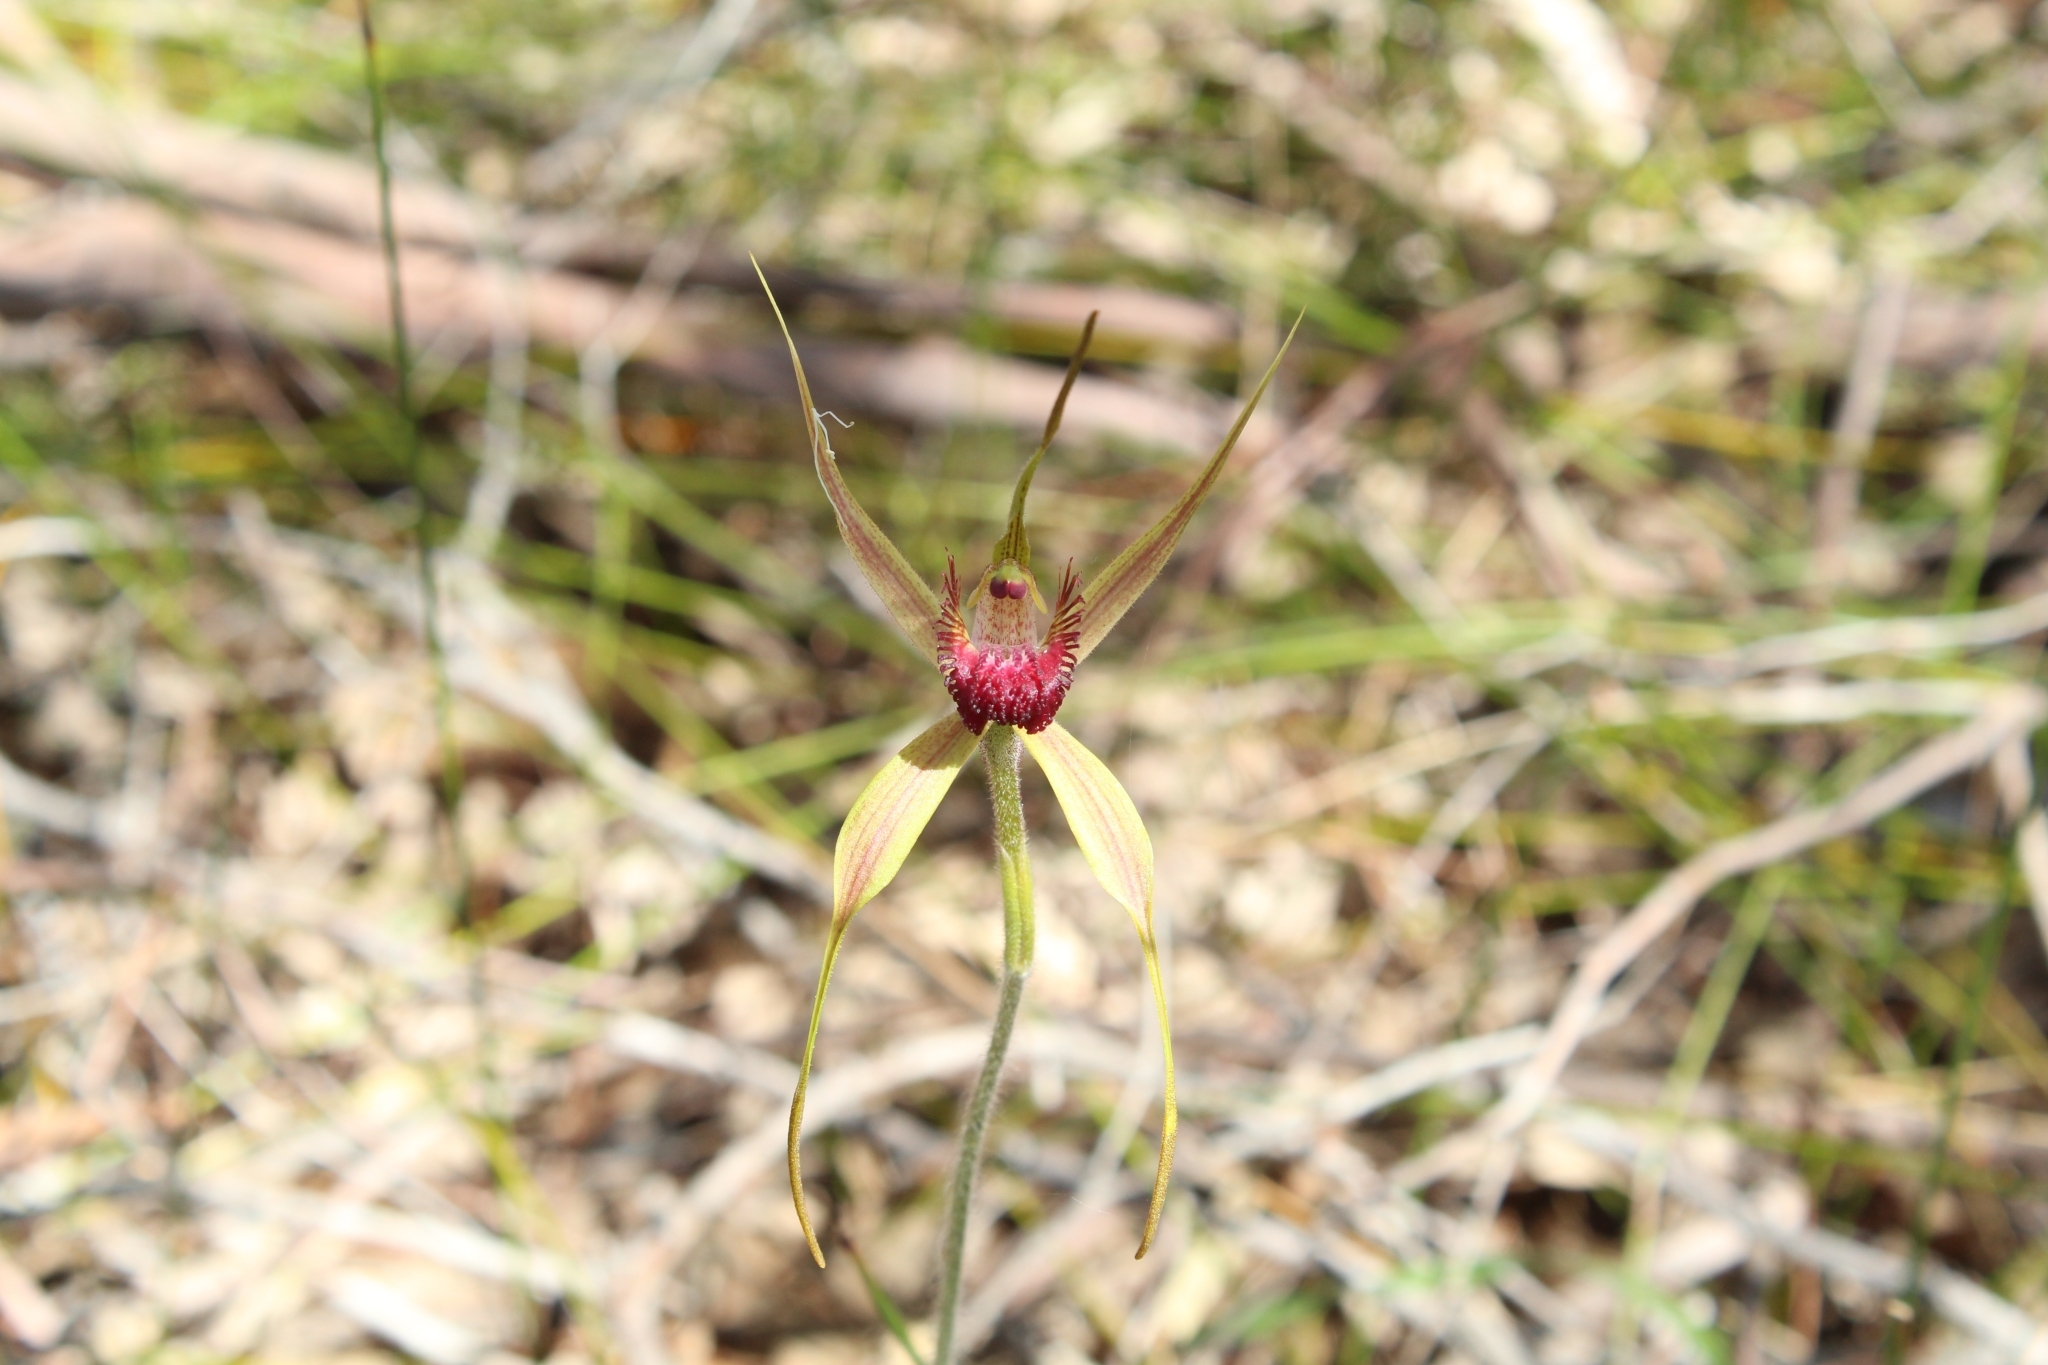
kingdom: Plantae
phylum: Tracheophyta
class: Liliopsida
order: Asparagales
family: Orchidaceae
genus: Caladenia
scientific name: Caladenia pectinata
